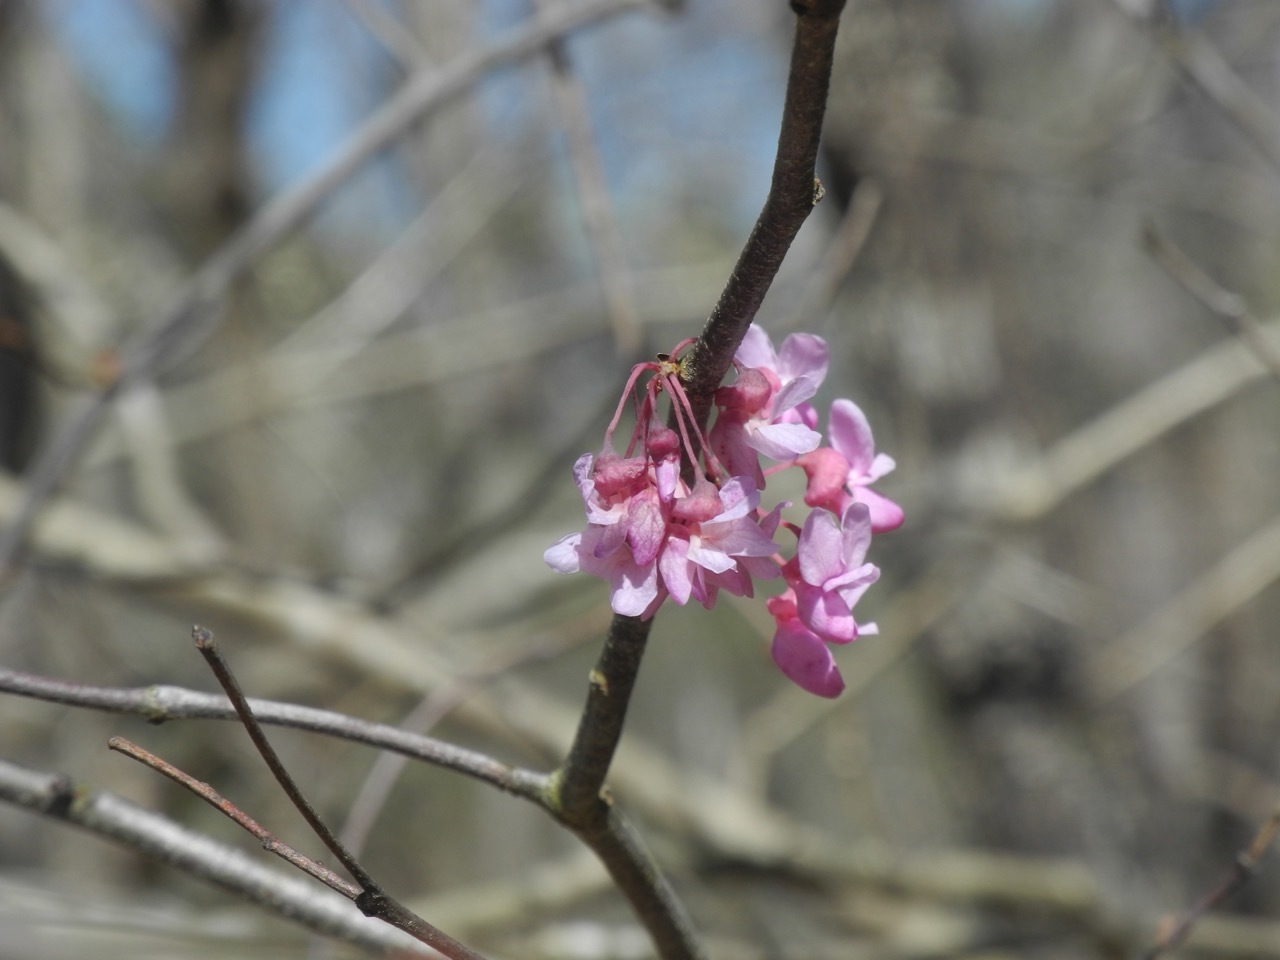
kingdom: Plantae
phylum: Tracheophyta
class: Magnoliopsida
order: Fabales
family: Fabaceae
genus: Cercis
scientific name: Cercis canadensis
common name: Eastern redbud
